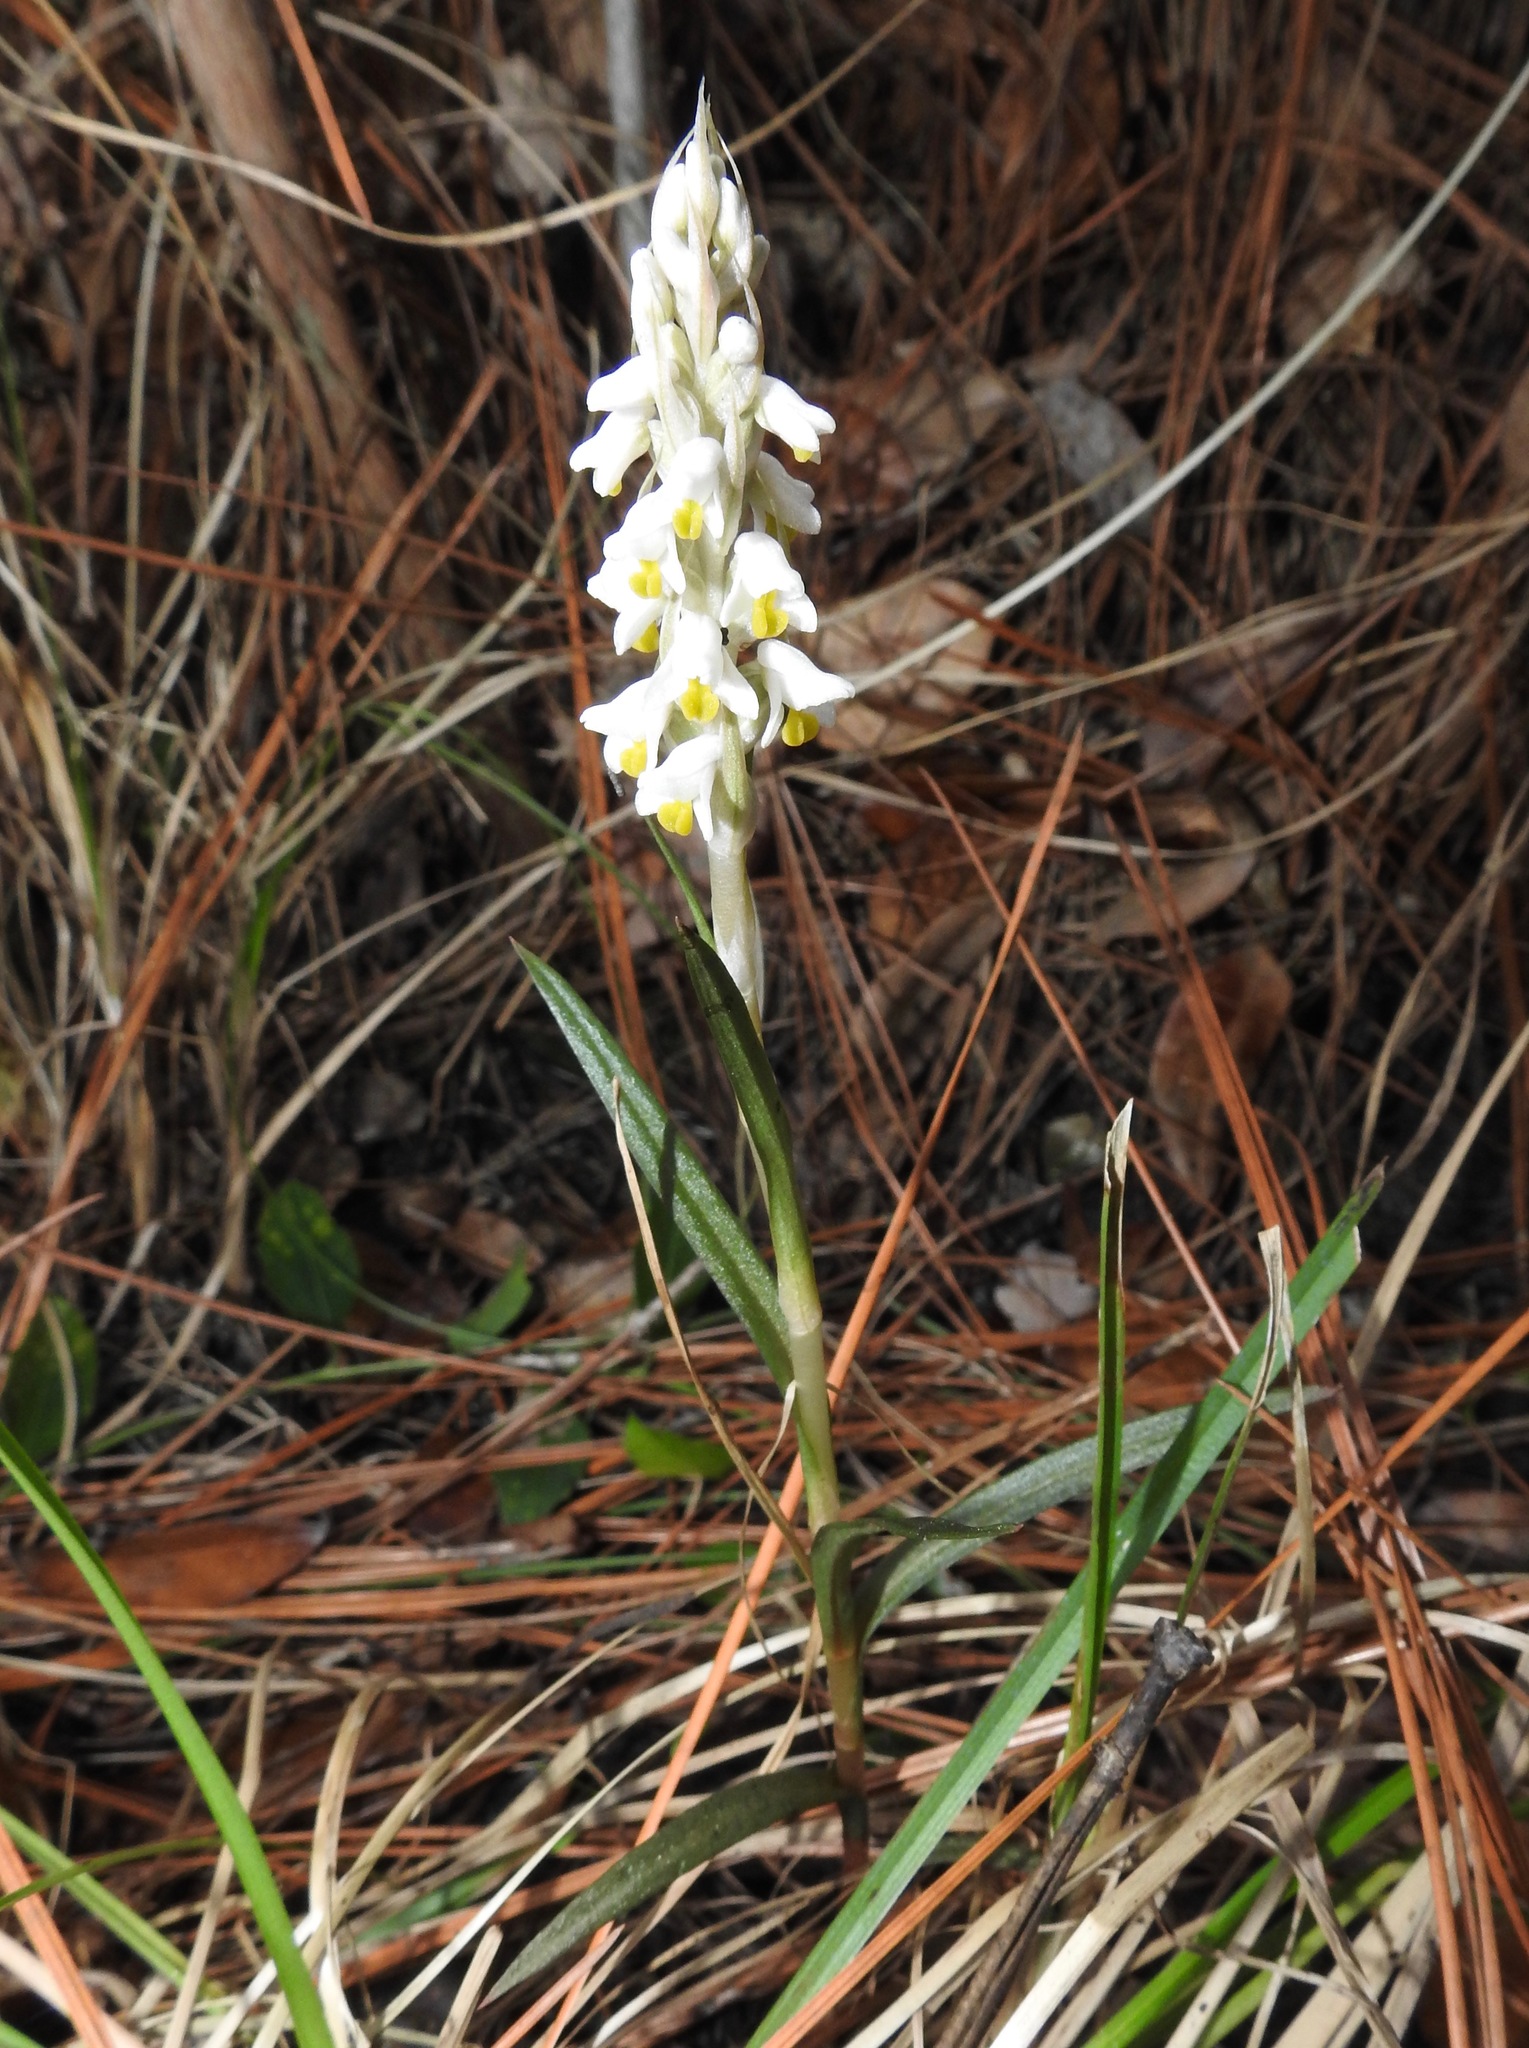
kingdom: Plantae
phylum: Tracheophyta
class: Liliopsida
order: Asparagales
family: Orchidaceae
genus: Zeuxine
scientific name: Zeuxine strateumatica
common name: Soldier's orchid
